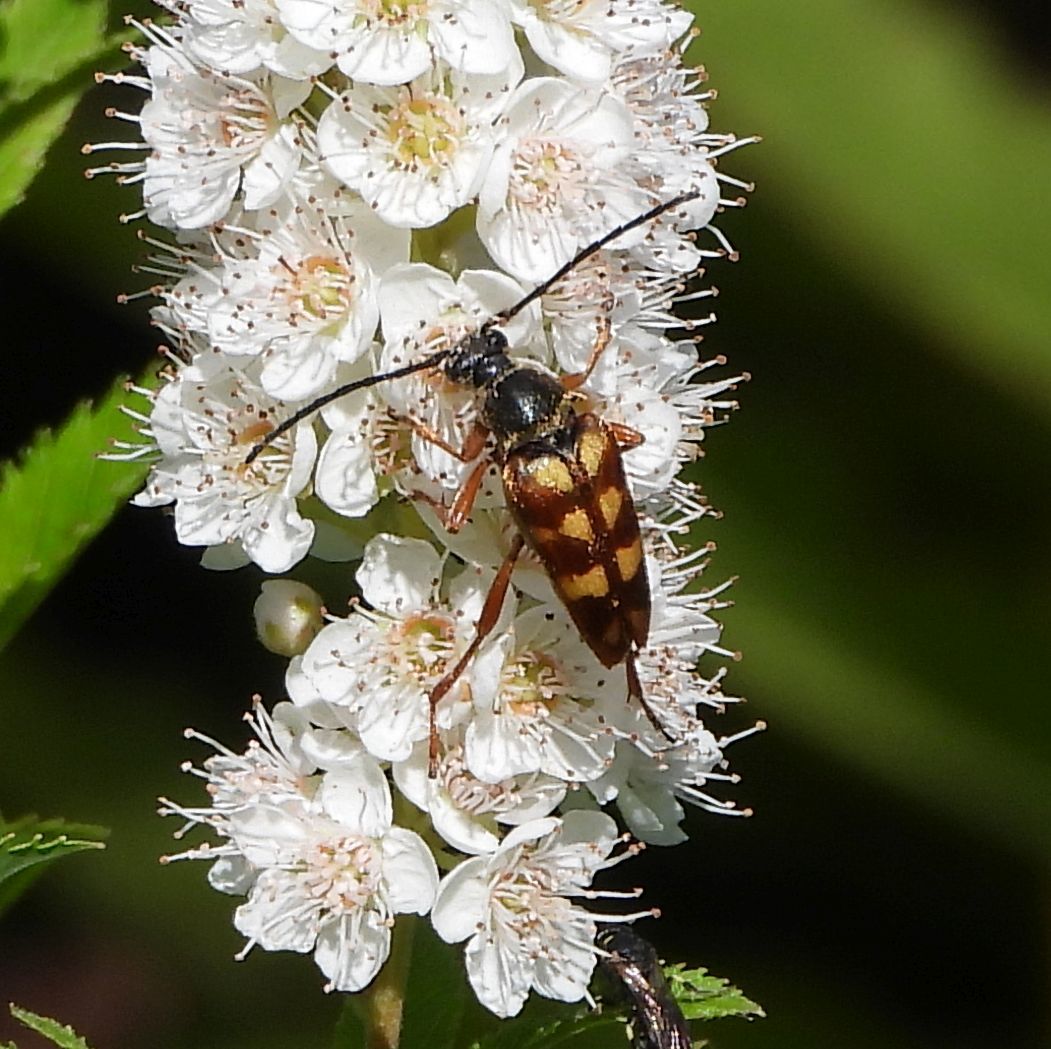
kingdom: Animalia
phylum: Arthropoda
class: Insecta
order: Coleoptera
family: Cerambycidae
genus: Typocerus
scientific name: Typocerus velutinus
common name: Banded longhorn beetle
